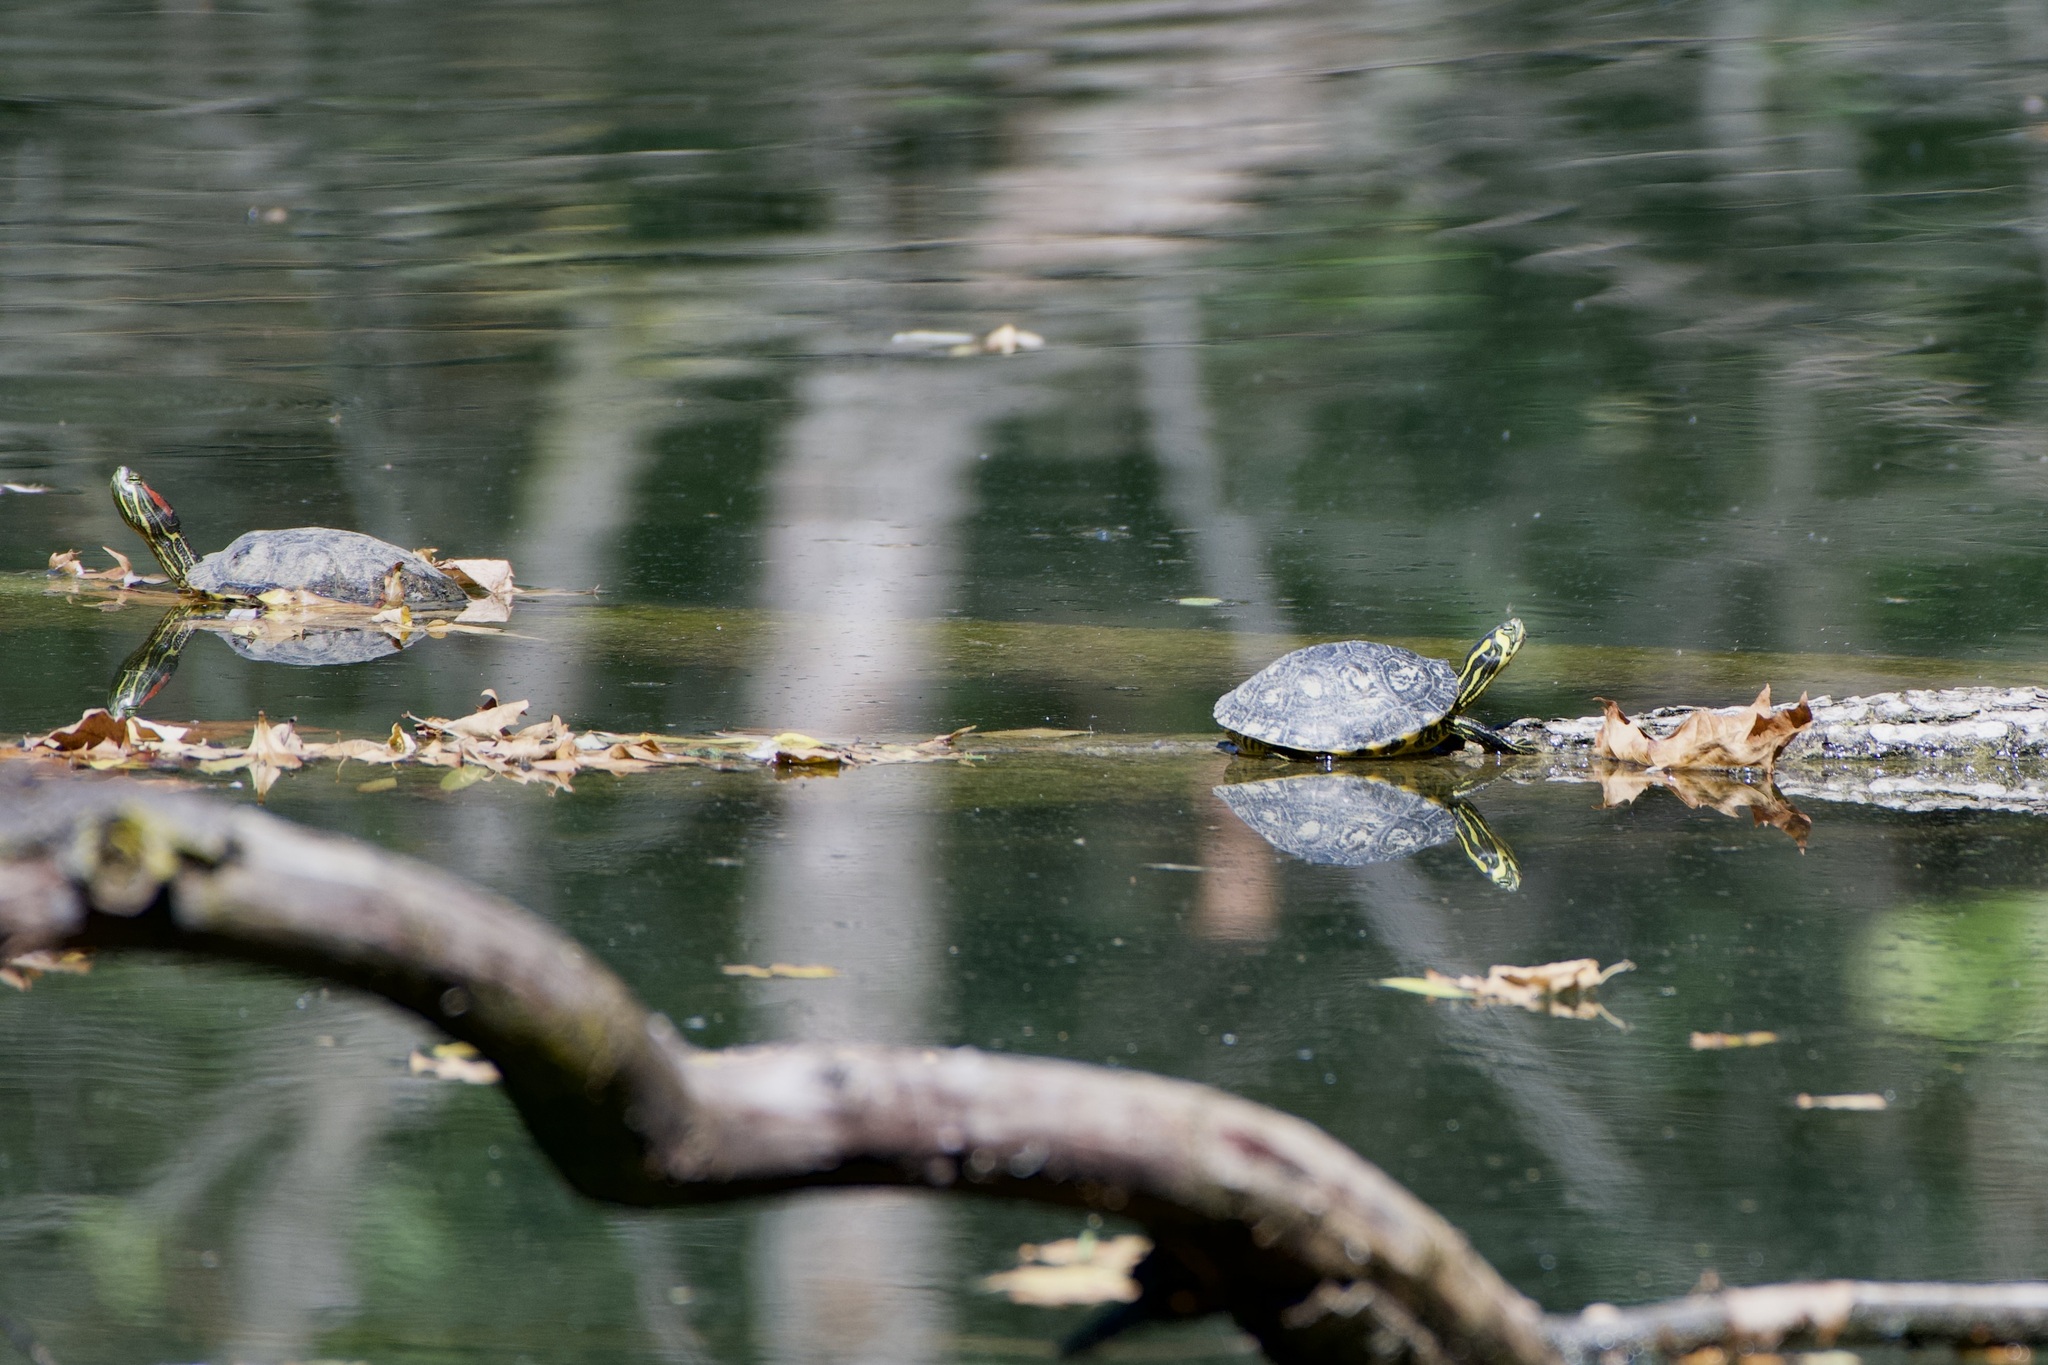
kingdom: Animalia
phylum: Chordata
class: Testudines
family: Emydidae
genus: Trachemys
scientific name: Trachemys scripta
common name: Slider
